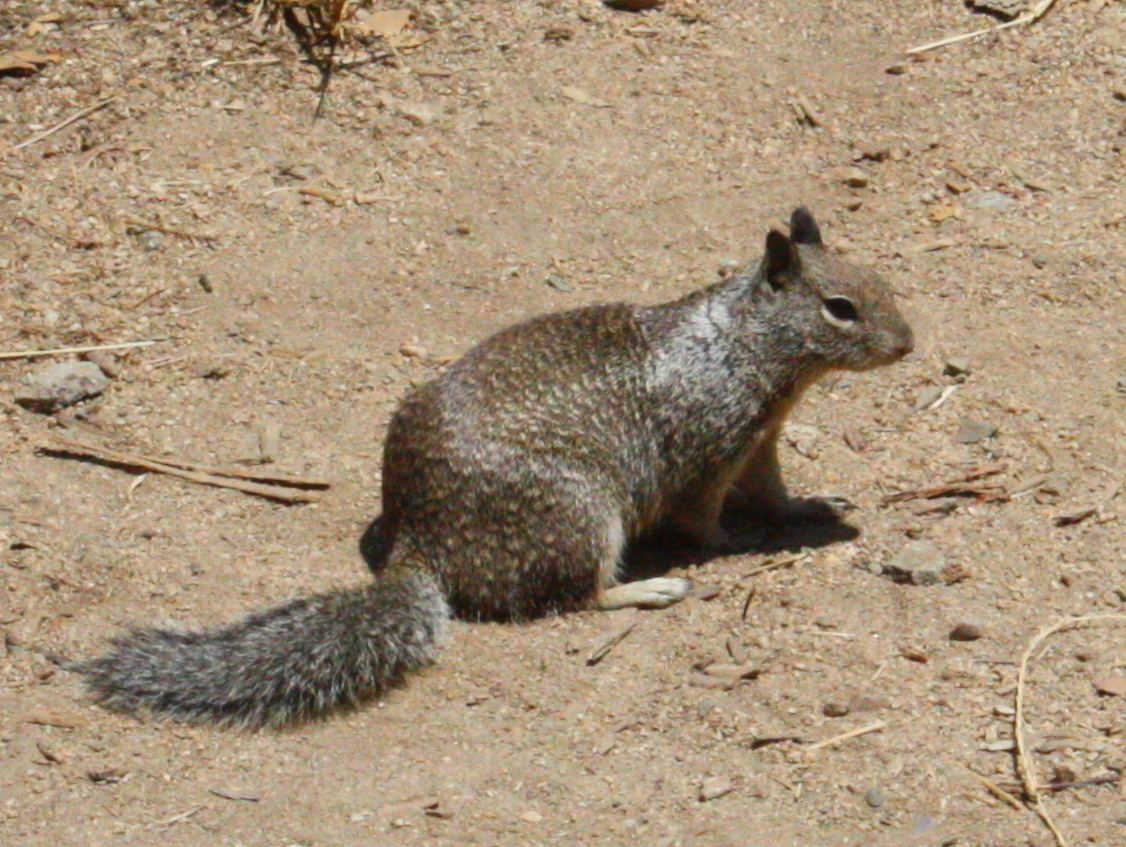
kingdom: Animalia
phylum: Chordata
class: Mammalia
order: Rodentia
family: Sciuridae
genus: Otospermophilus
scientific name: Otospermophilus beecheyi
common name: California ground squirrel
